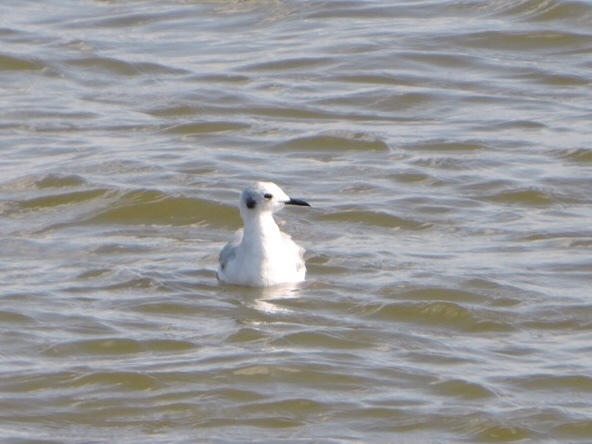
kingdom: Animalia
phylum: Chordata
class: Aves
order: Charadriiformes
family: Laridae
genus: Chroicocephalus
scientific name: Chroicocephalus philadelphia
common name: Bonaparte's gull
